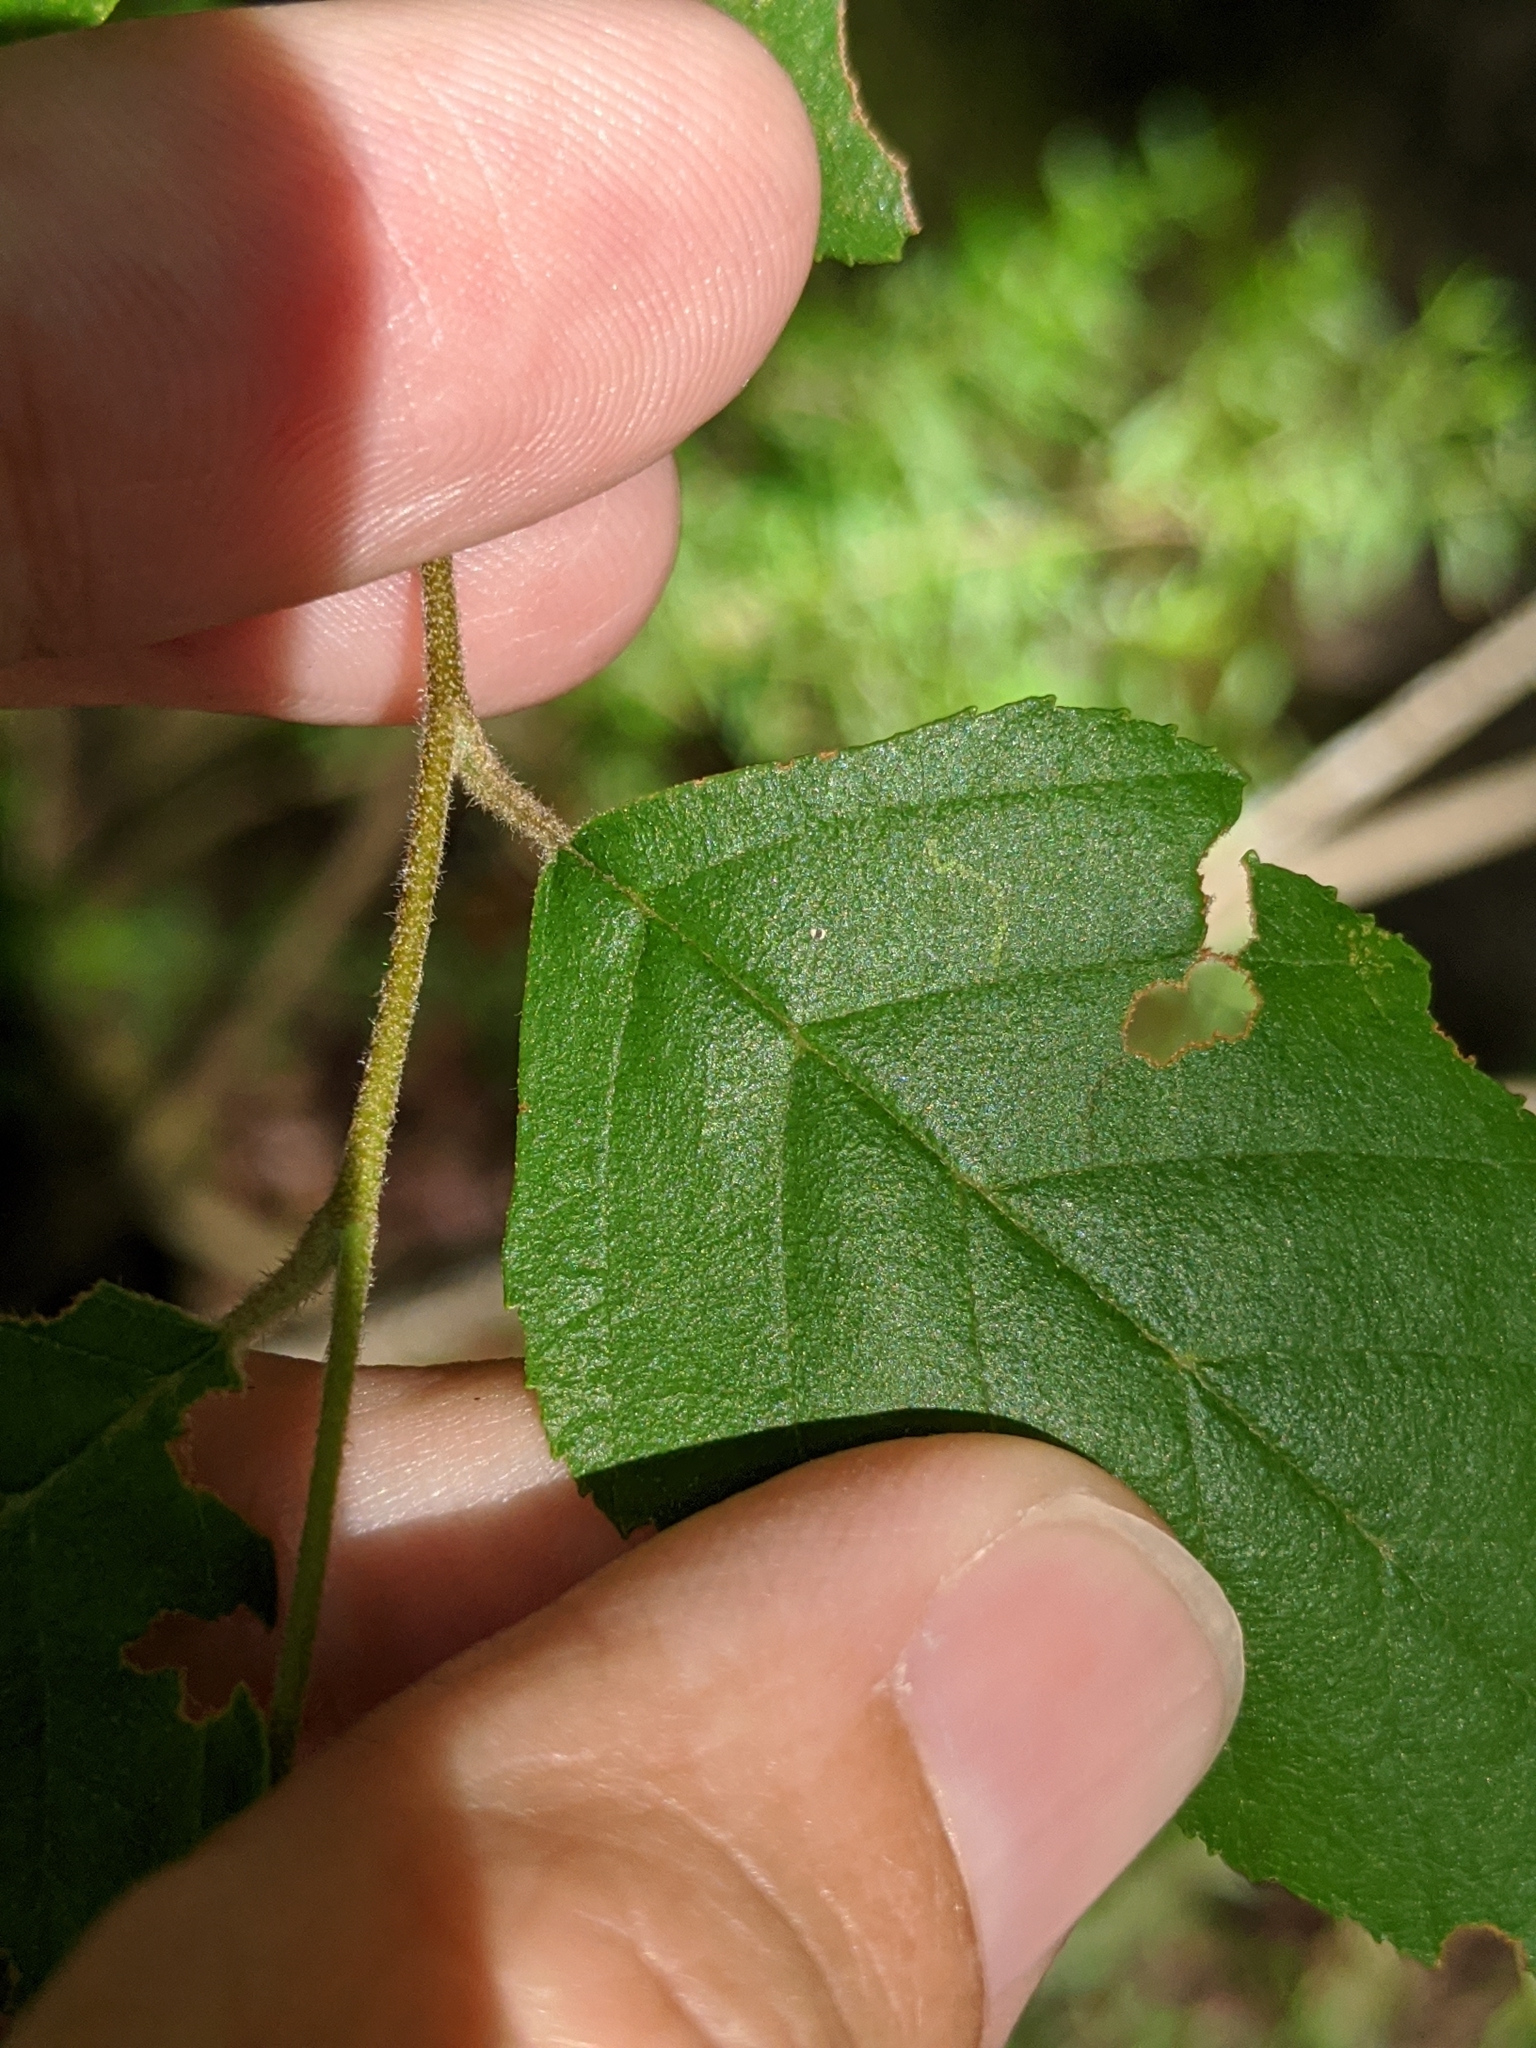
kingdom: Plantae
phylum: Tracheophyta
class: Magnoliopsida
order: Fagales
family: Betulaceae
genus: Betula
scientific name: Betula nigra
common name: Black birch
